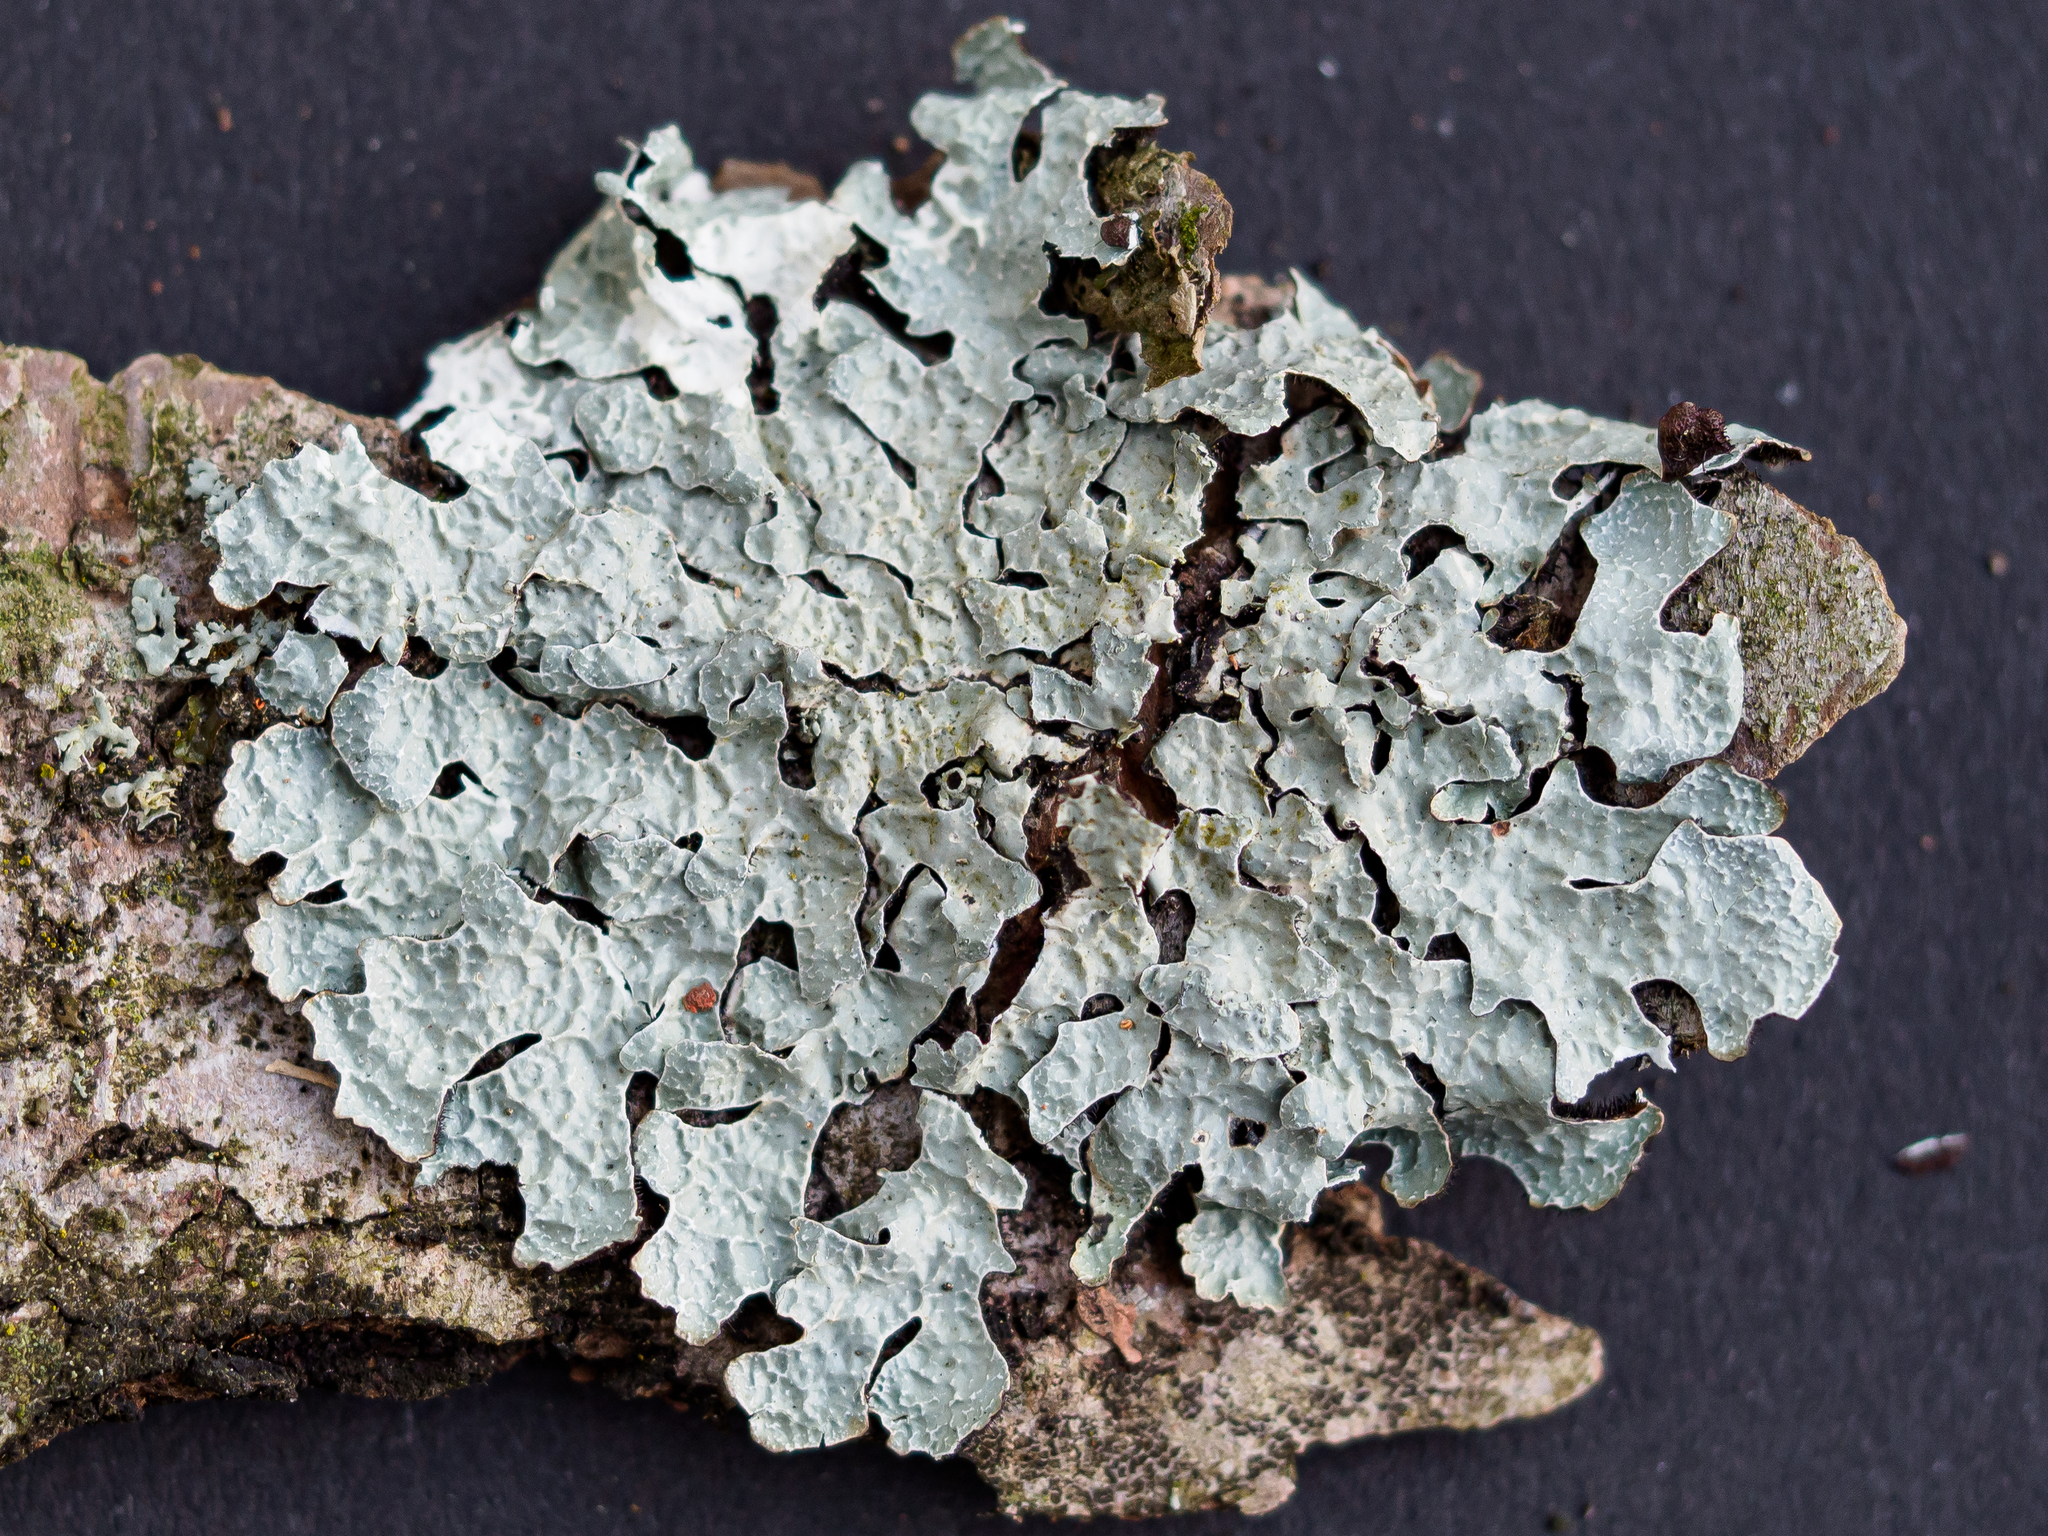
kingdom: Fungi
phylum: Ascomycota
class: Lecanoromycetes
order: Lecanorales
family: Parmeliaceae
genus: Parmelia
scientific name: Parmelia sulcata
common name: Netted shield lichen
